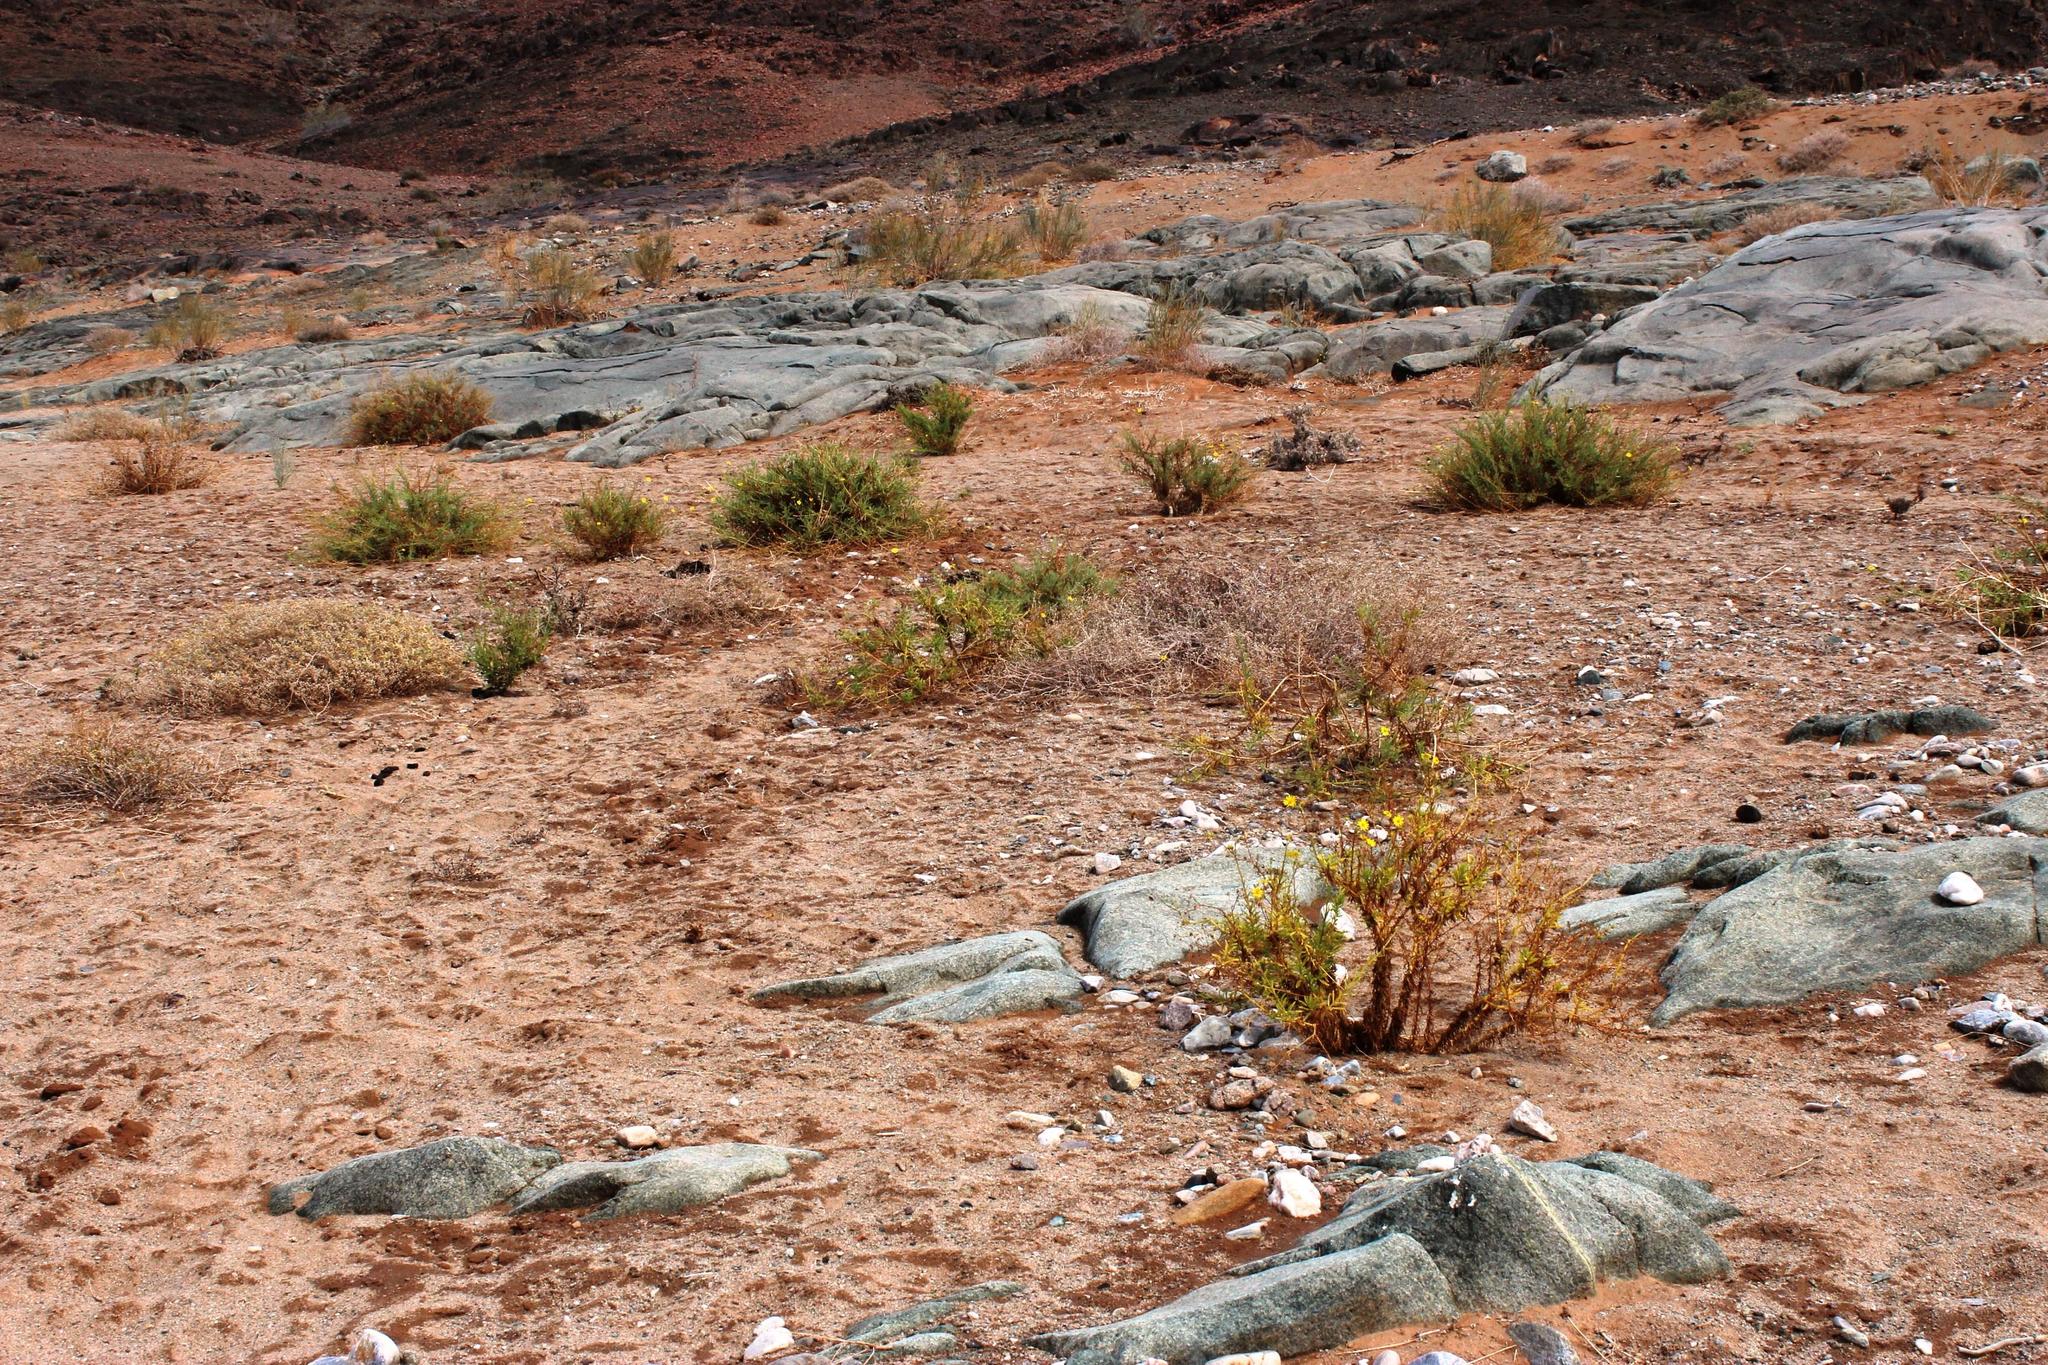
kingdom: Plantae
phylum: Tracheophyta
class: Magnoliopsida
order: Asterales
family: Asteraceae
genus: Osteospermum
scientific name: Osteospermum microcarpum
